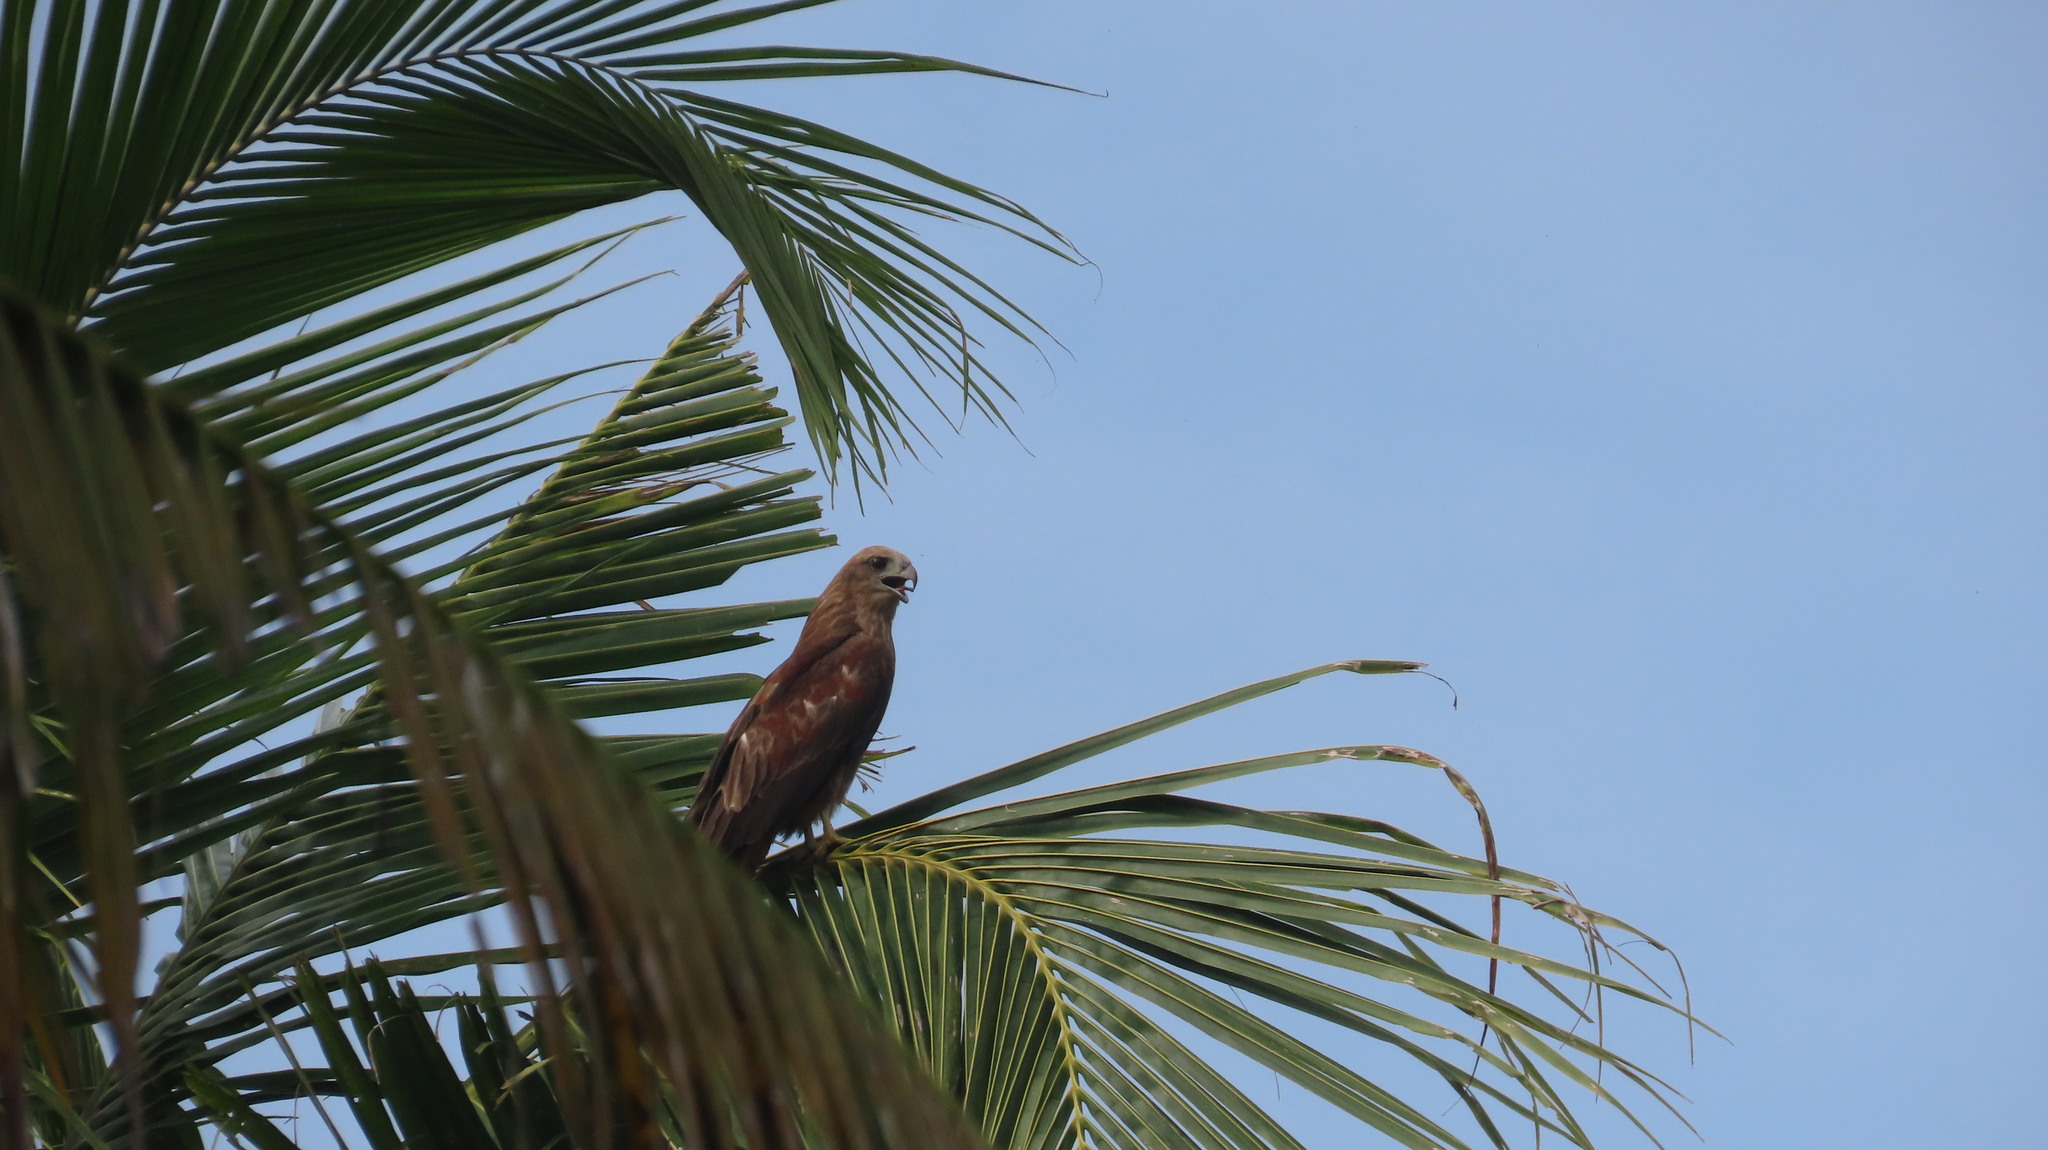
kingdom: Animalia
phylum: Chordata
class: Aves
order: Accipitriformes
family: Accipitridae
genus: Haliastur
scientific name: Haliastur indus
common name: Brahminy kite
